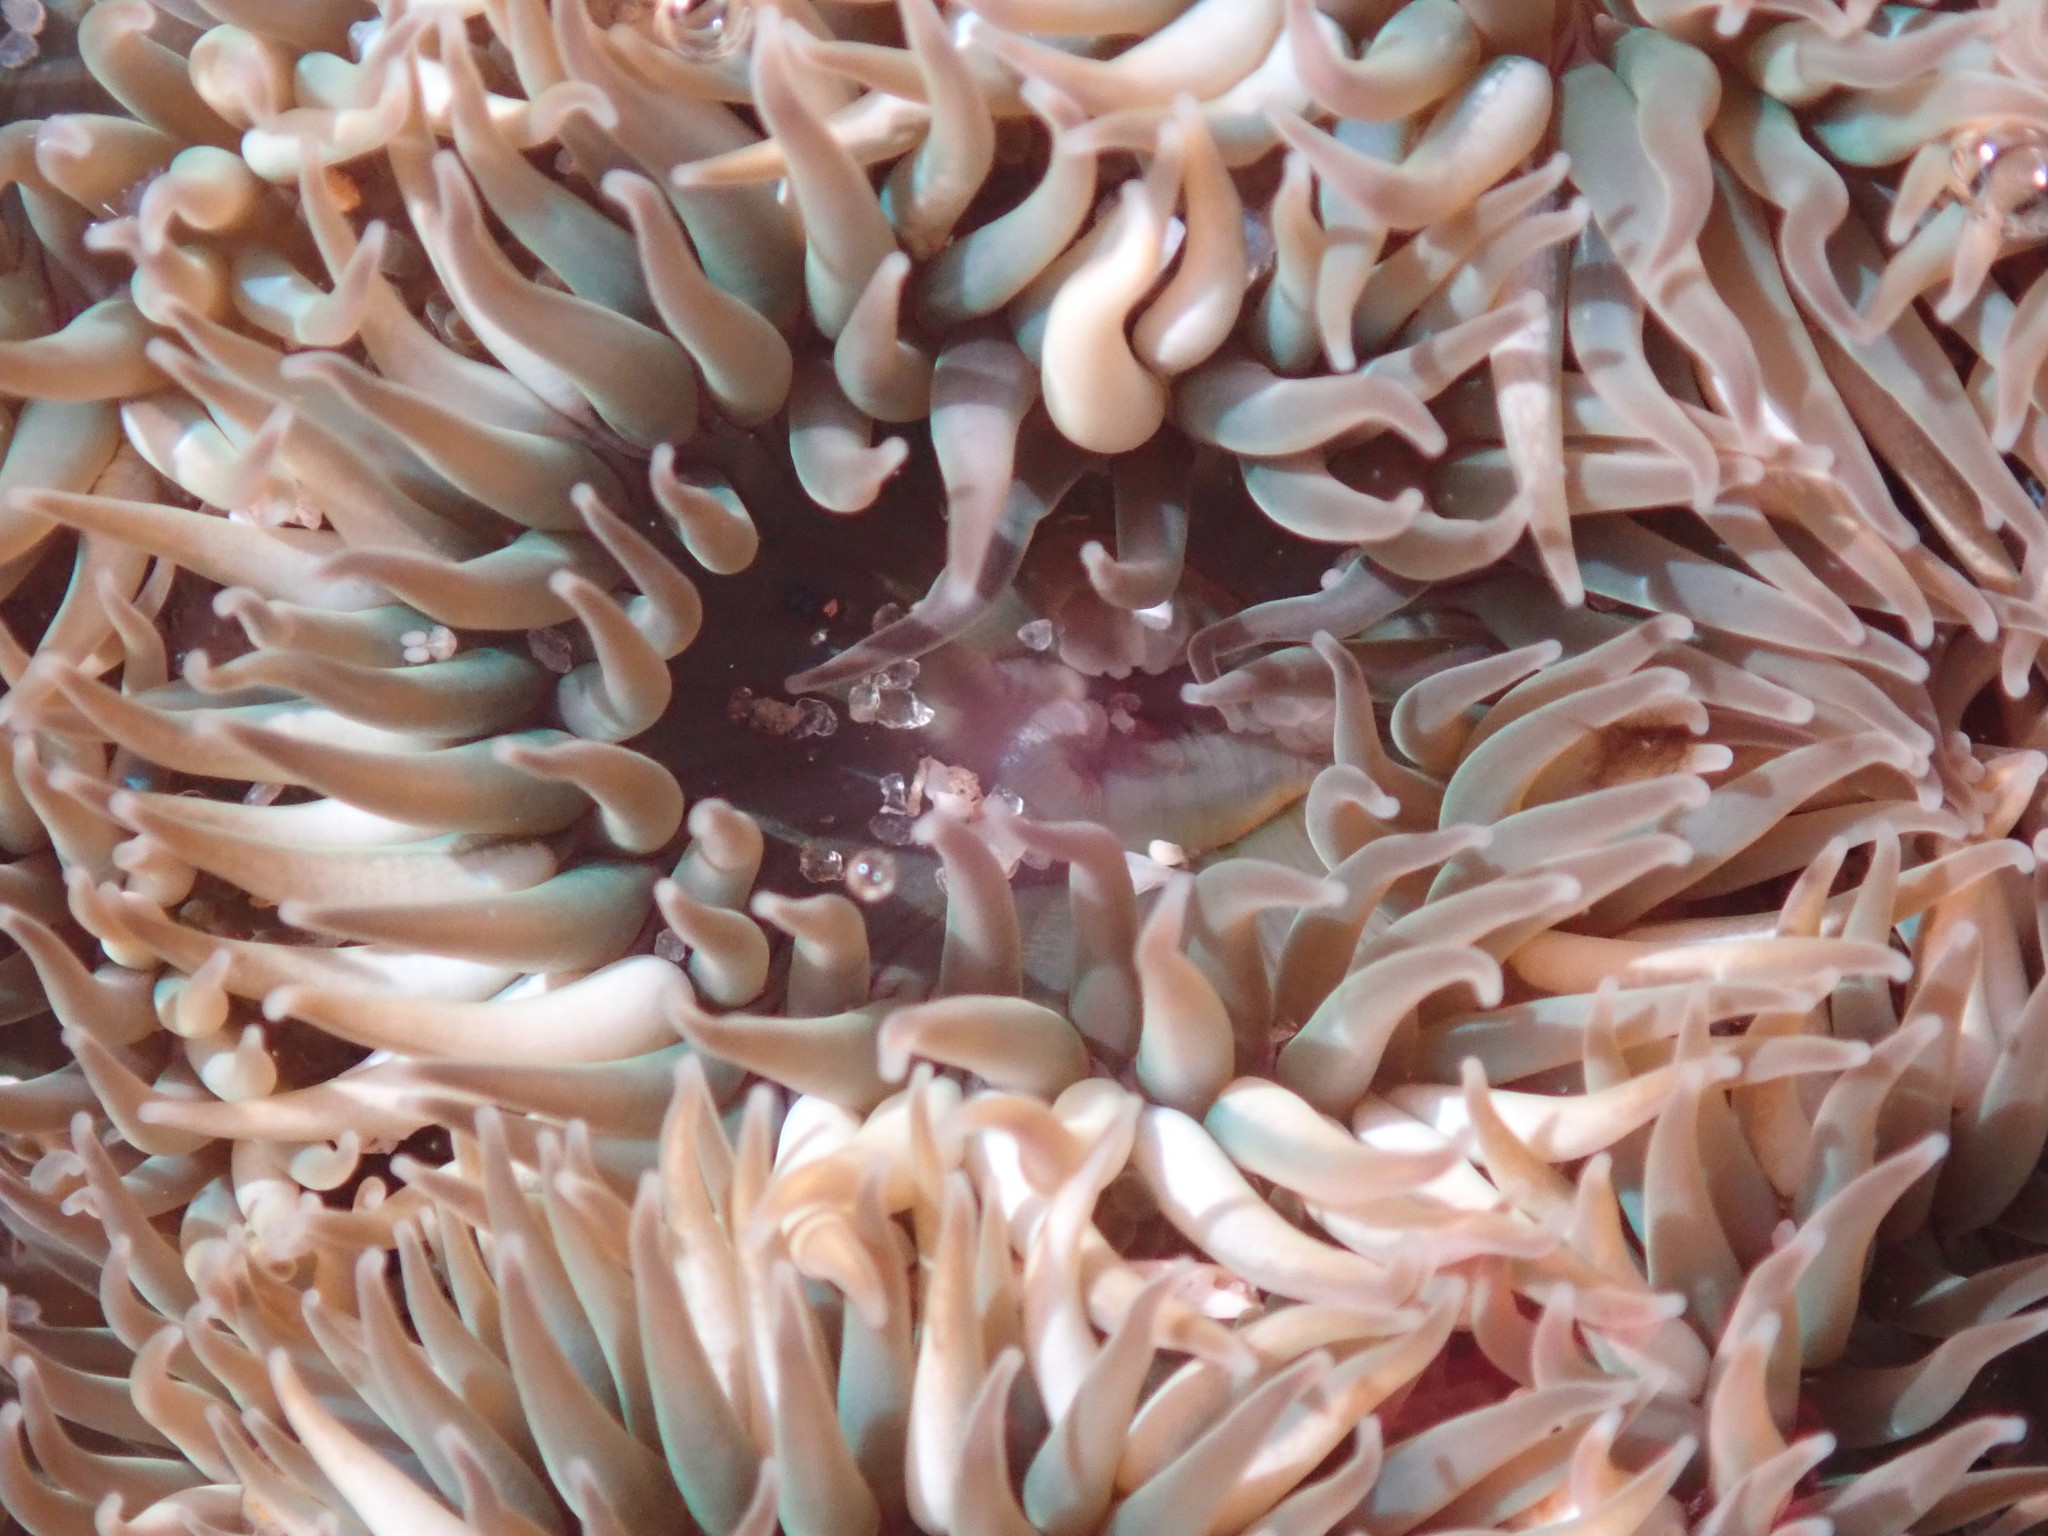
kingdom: Animalia
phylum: Cnidaria
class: Anthozoa
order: Actiniaria
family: Actiniidae
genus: Anthopleura
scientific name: Anthopleura elegantissima
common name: Clonal anemone
